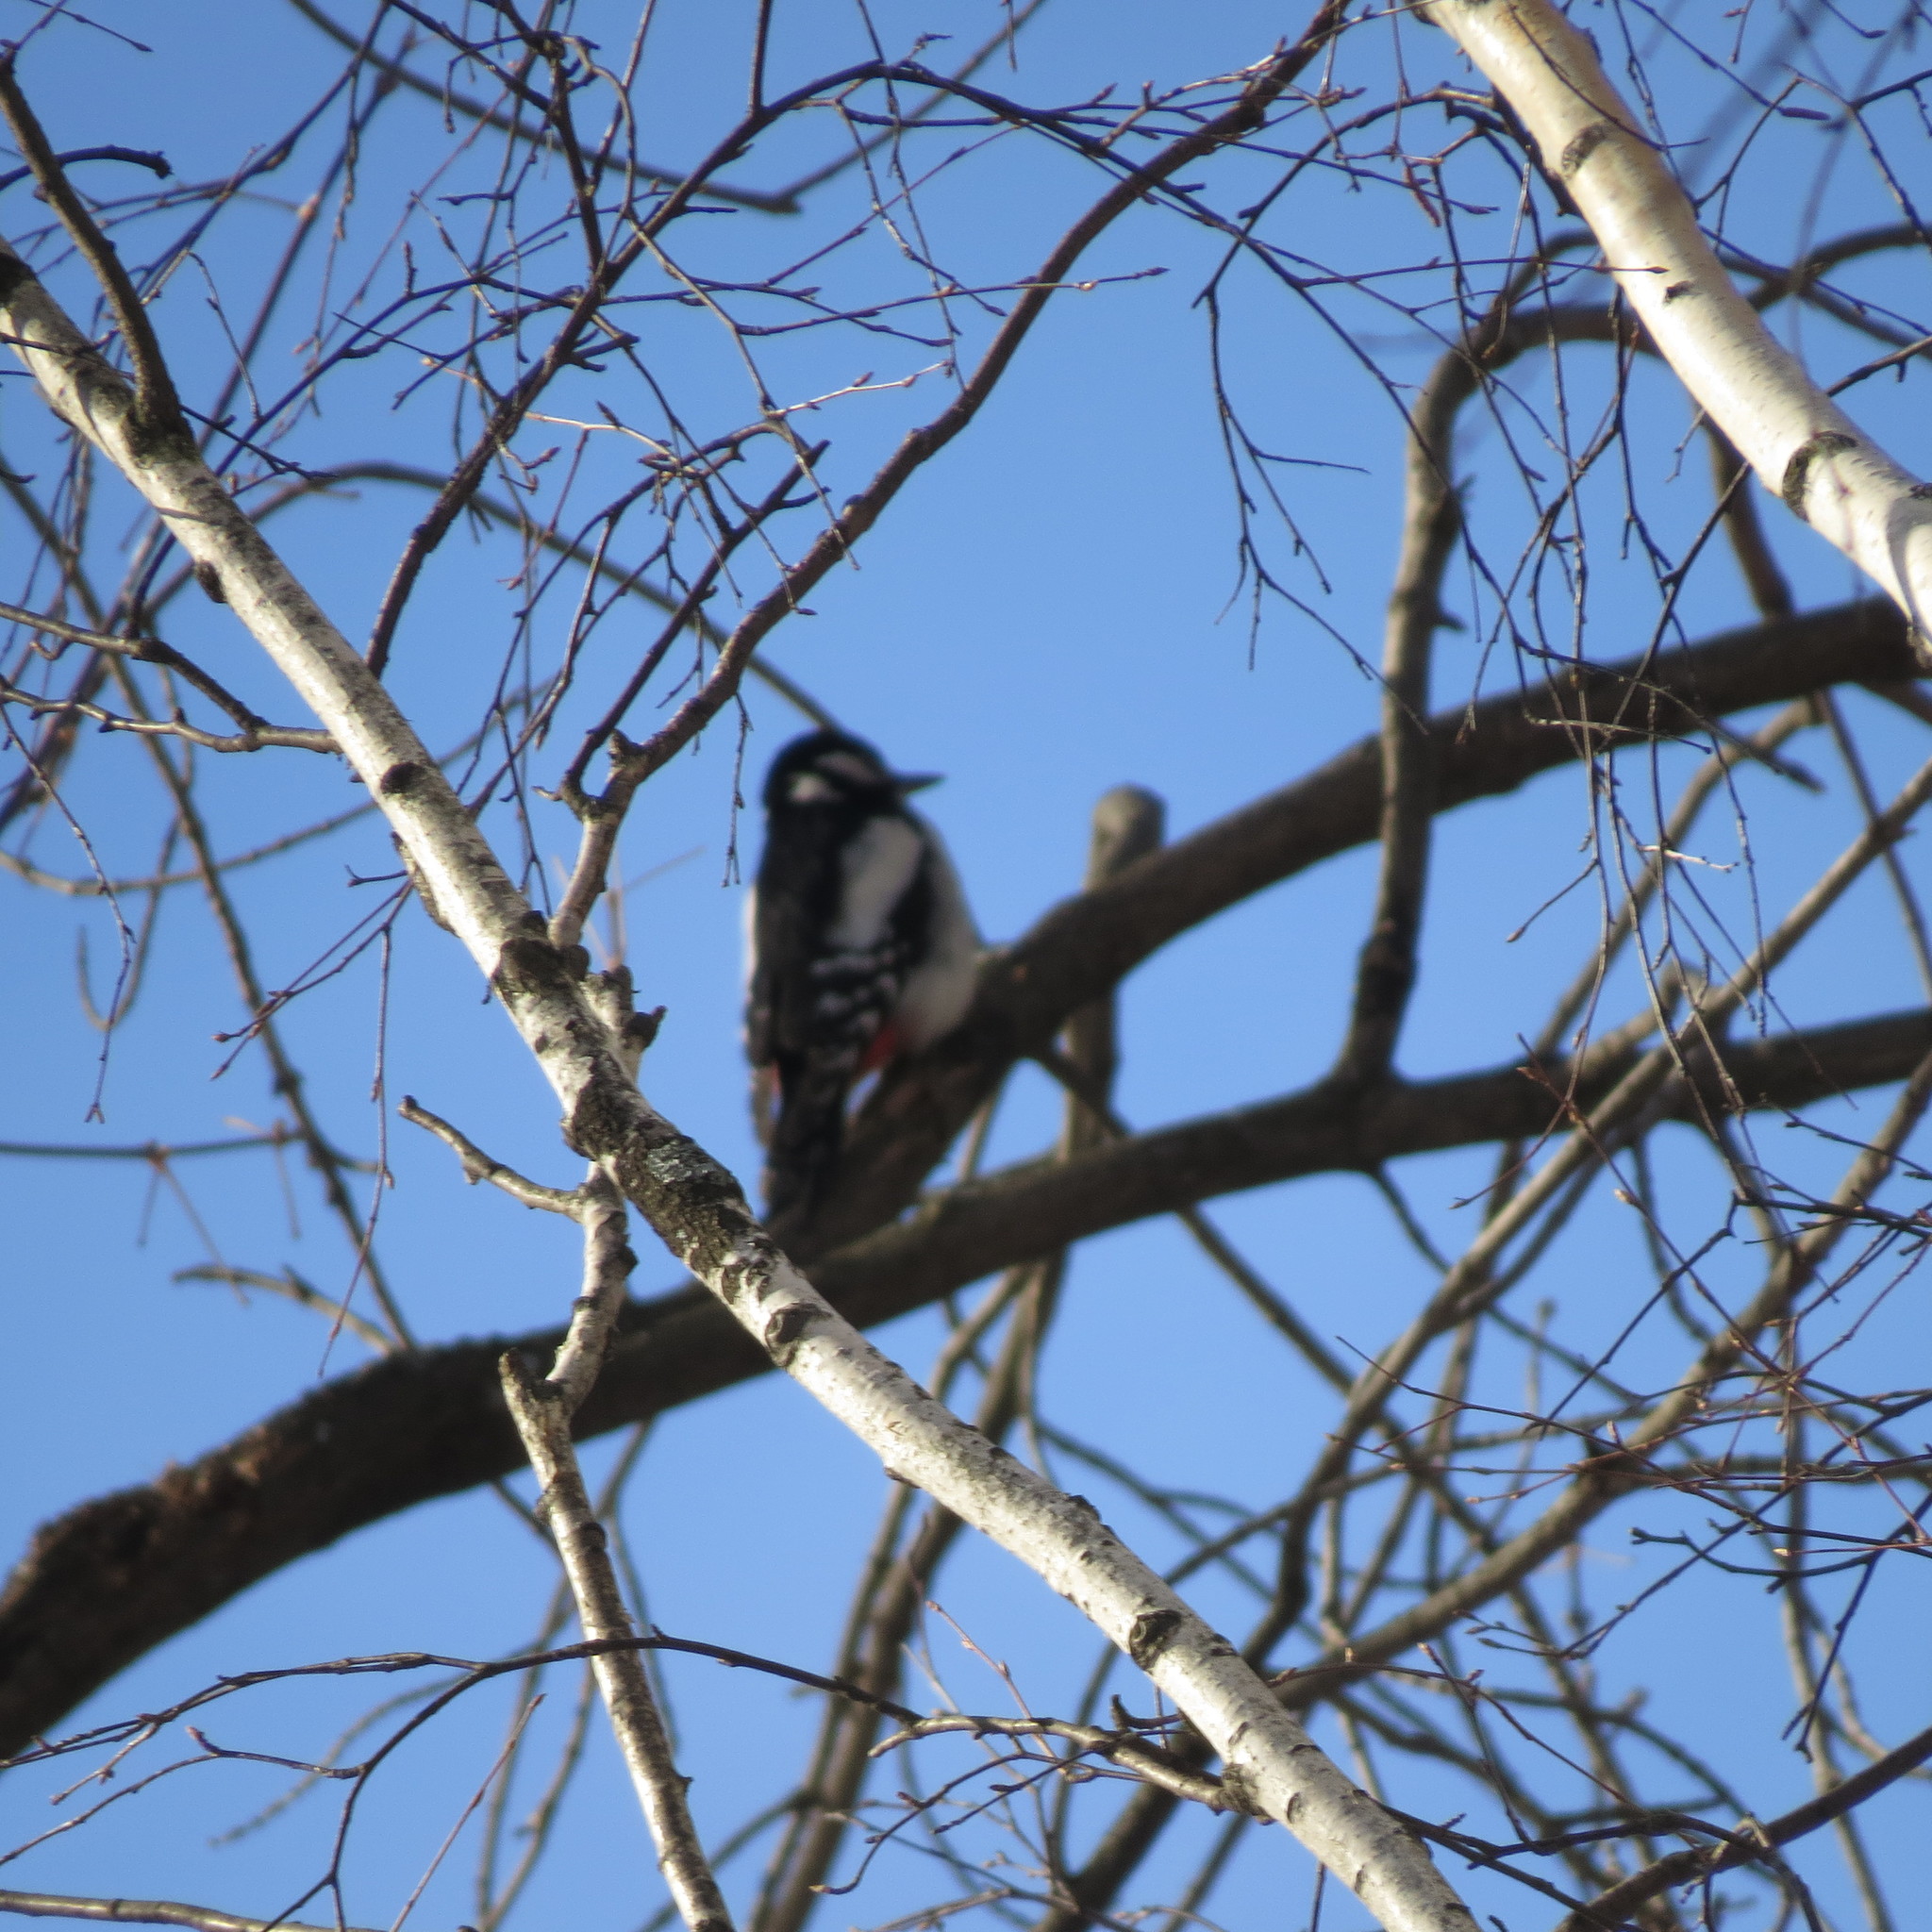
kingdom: Animalia
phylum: Chordata
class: Aves
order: Piciformes
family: Picidae
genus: Dendrocopos
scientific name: Dendrocopos major
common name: Great spotted woodpecker
